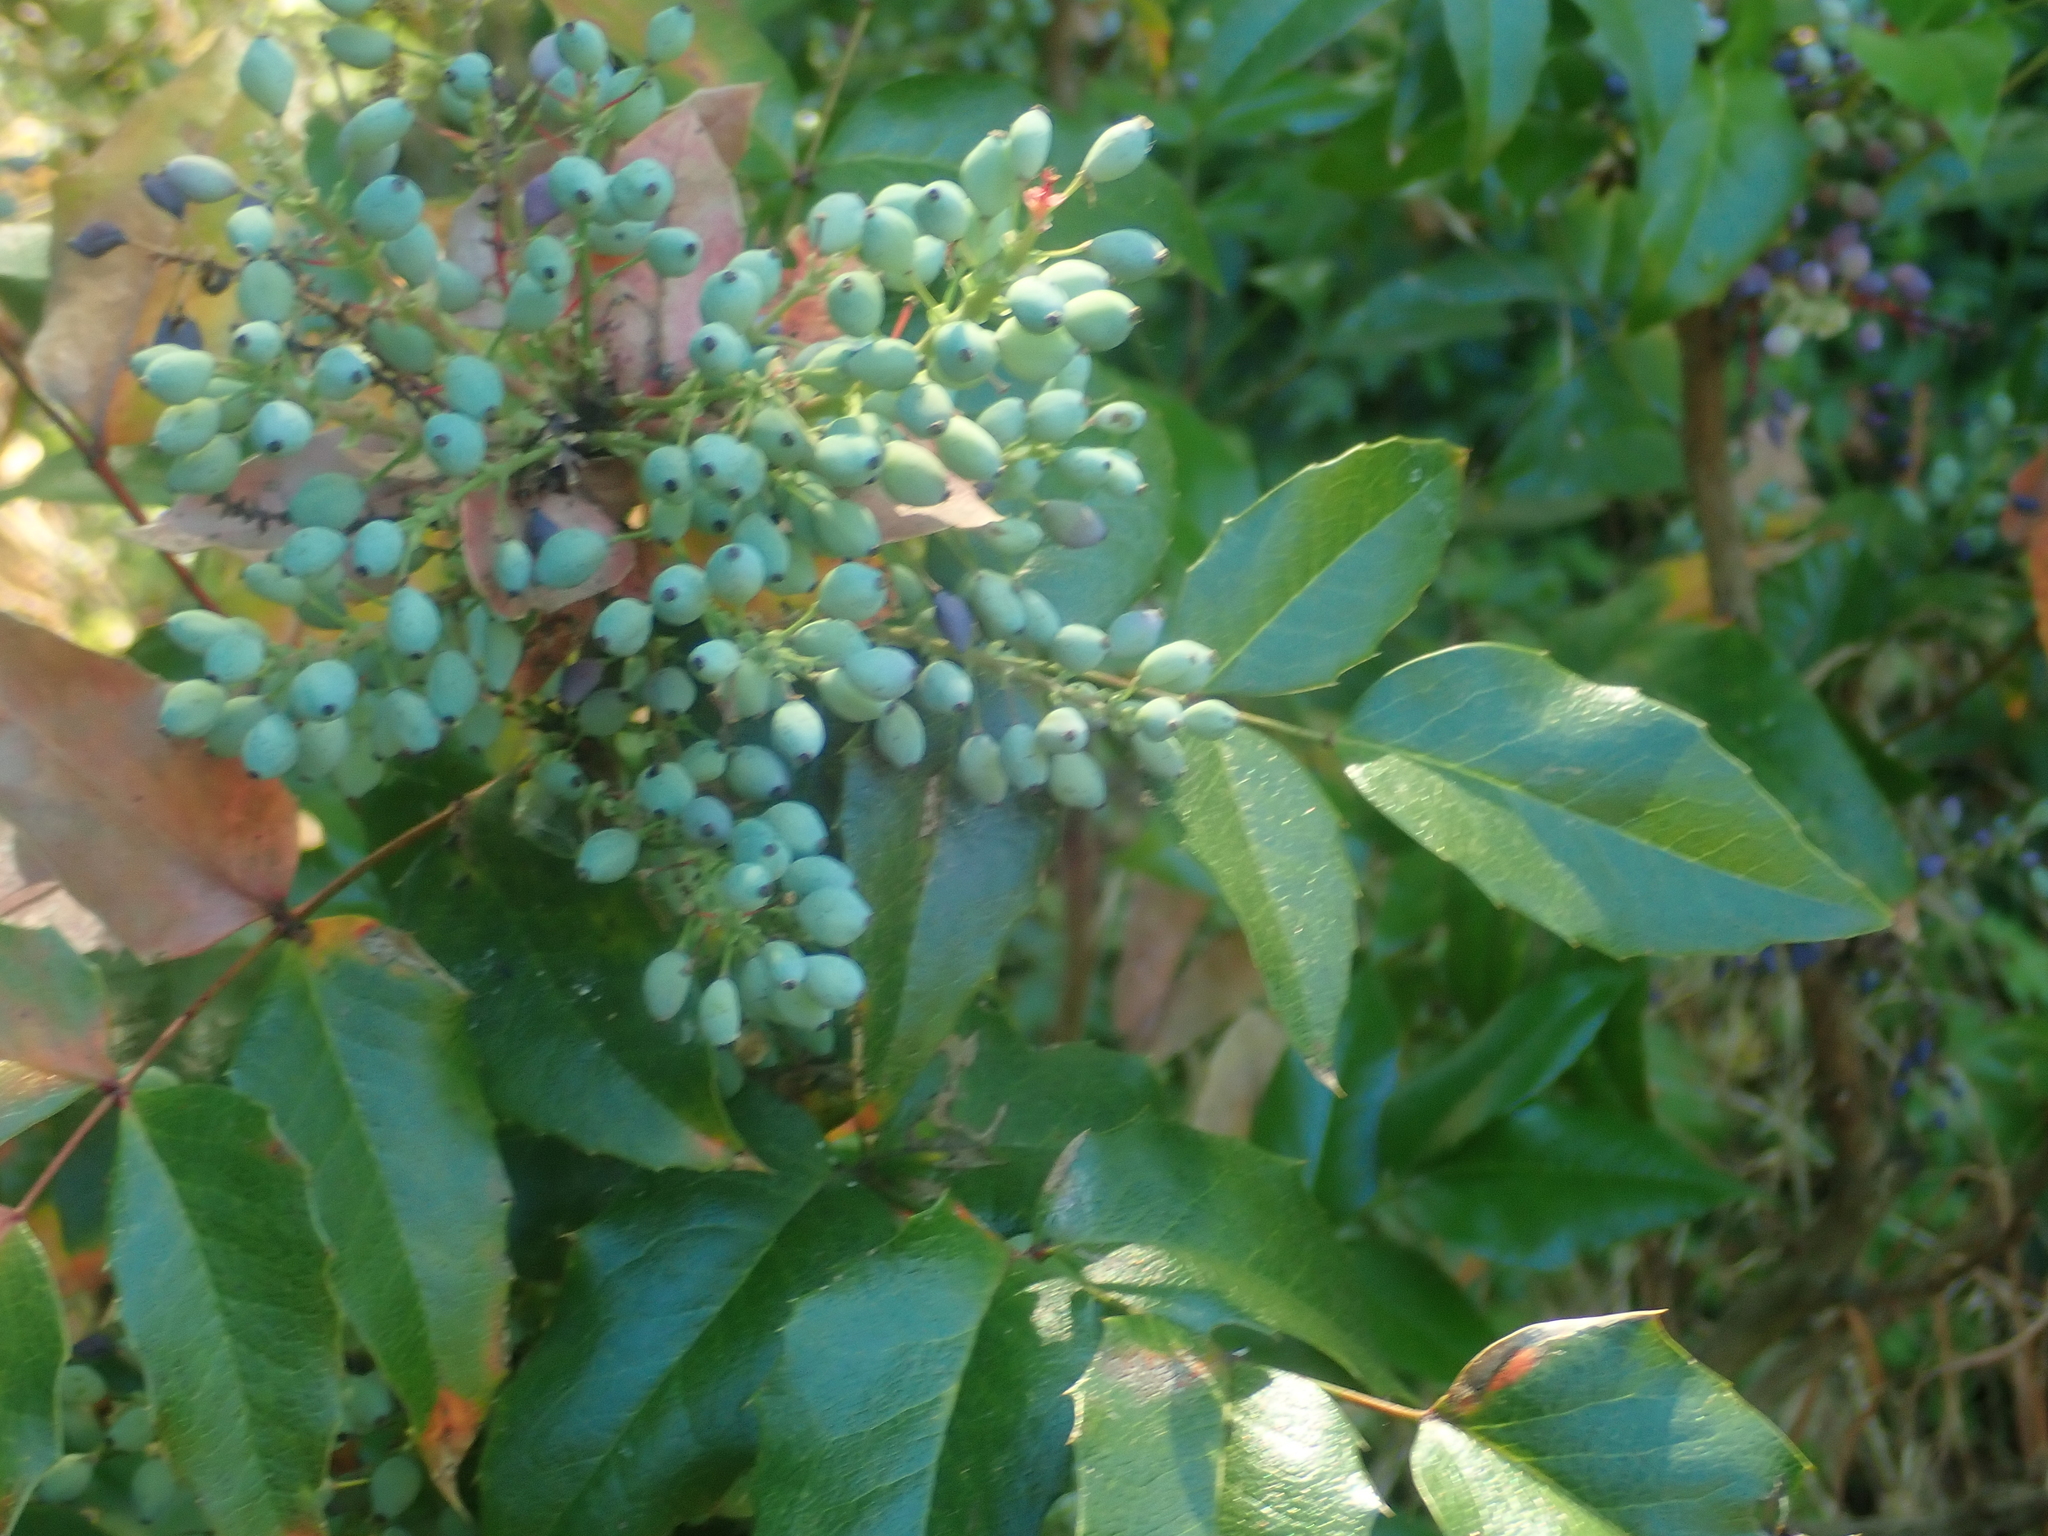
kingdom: Plantae
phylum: Tracheophyta
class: Magnoliopsida
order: Ranunculales
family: Berberidaceae
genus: Mahonia
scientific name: Mahonia aquifolium
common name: Oregon-grape
